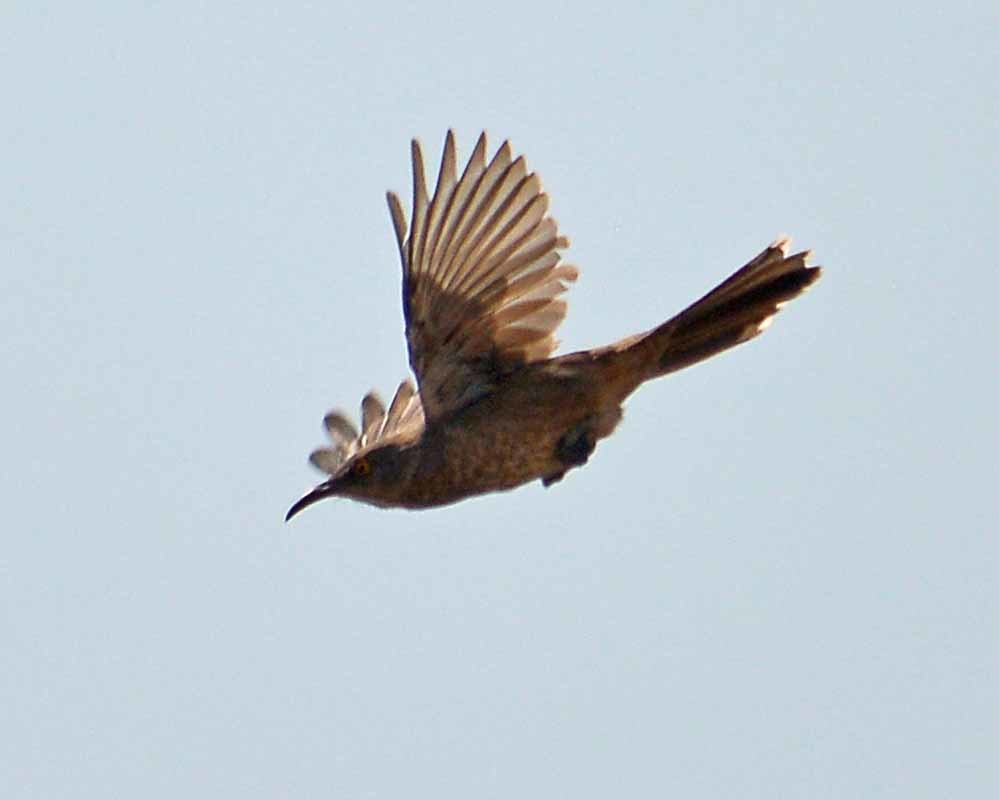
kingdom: Animalia
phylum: Chordata
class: Aves
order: Passeriformes
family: Mimidae
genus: Toxostoma
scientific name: Toxostoma curvirostre
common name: Curve-billed thrasher
